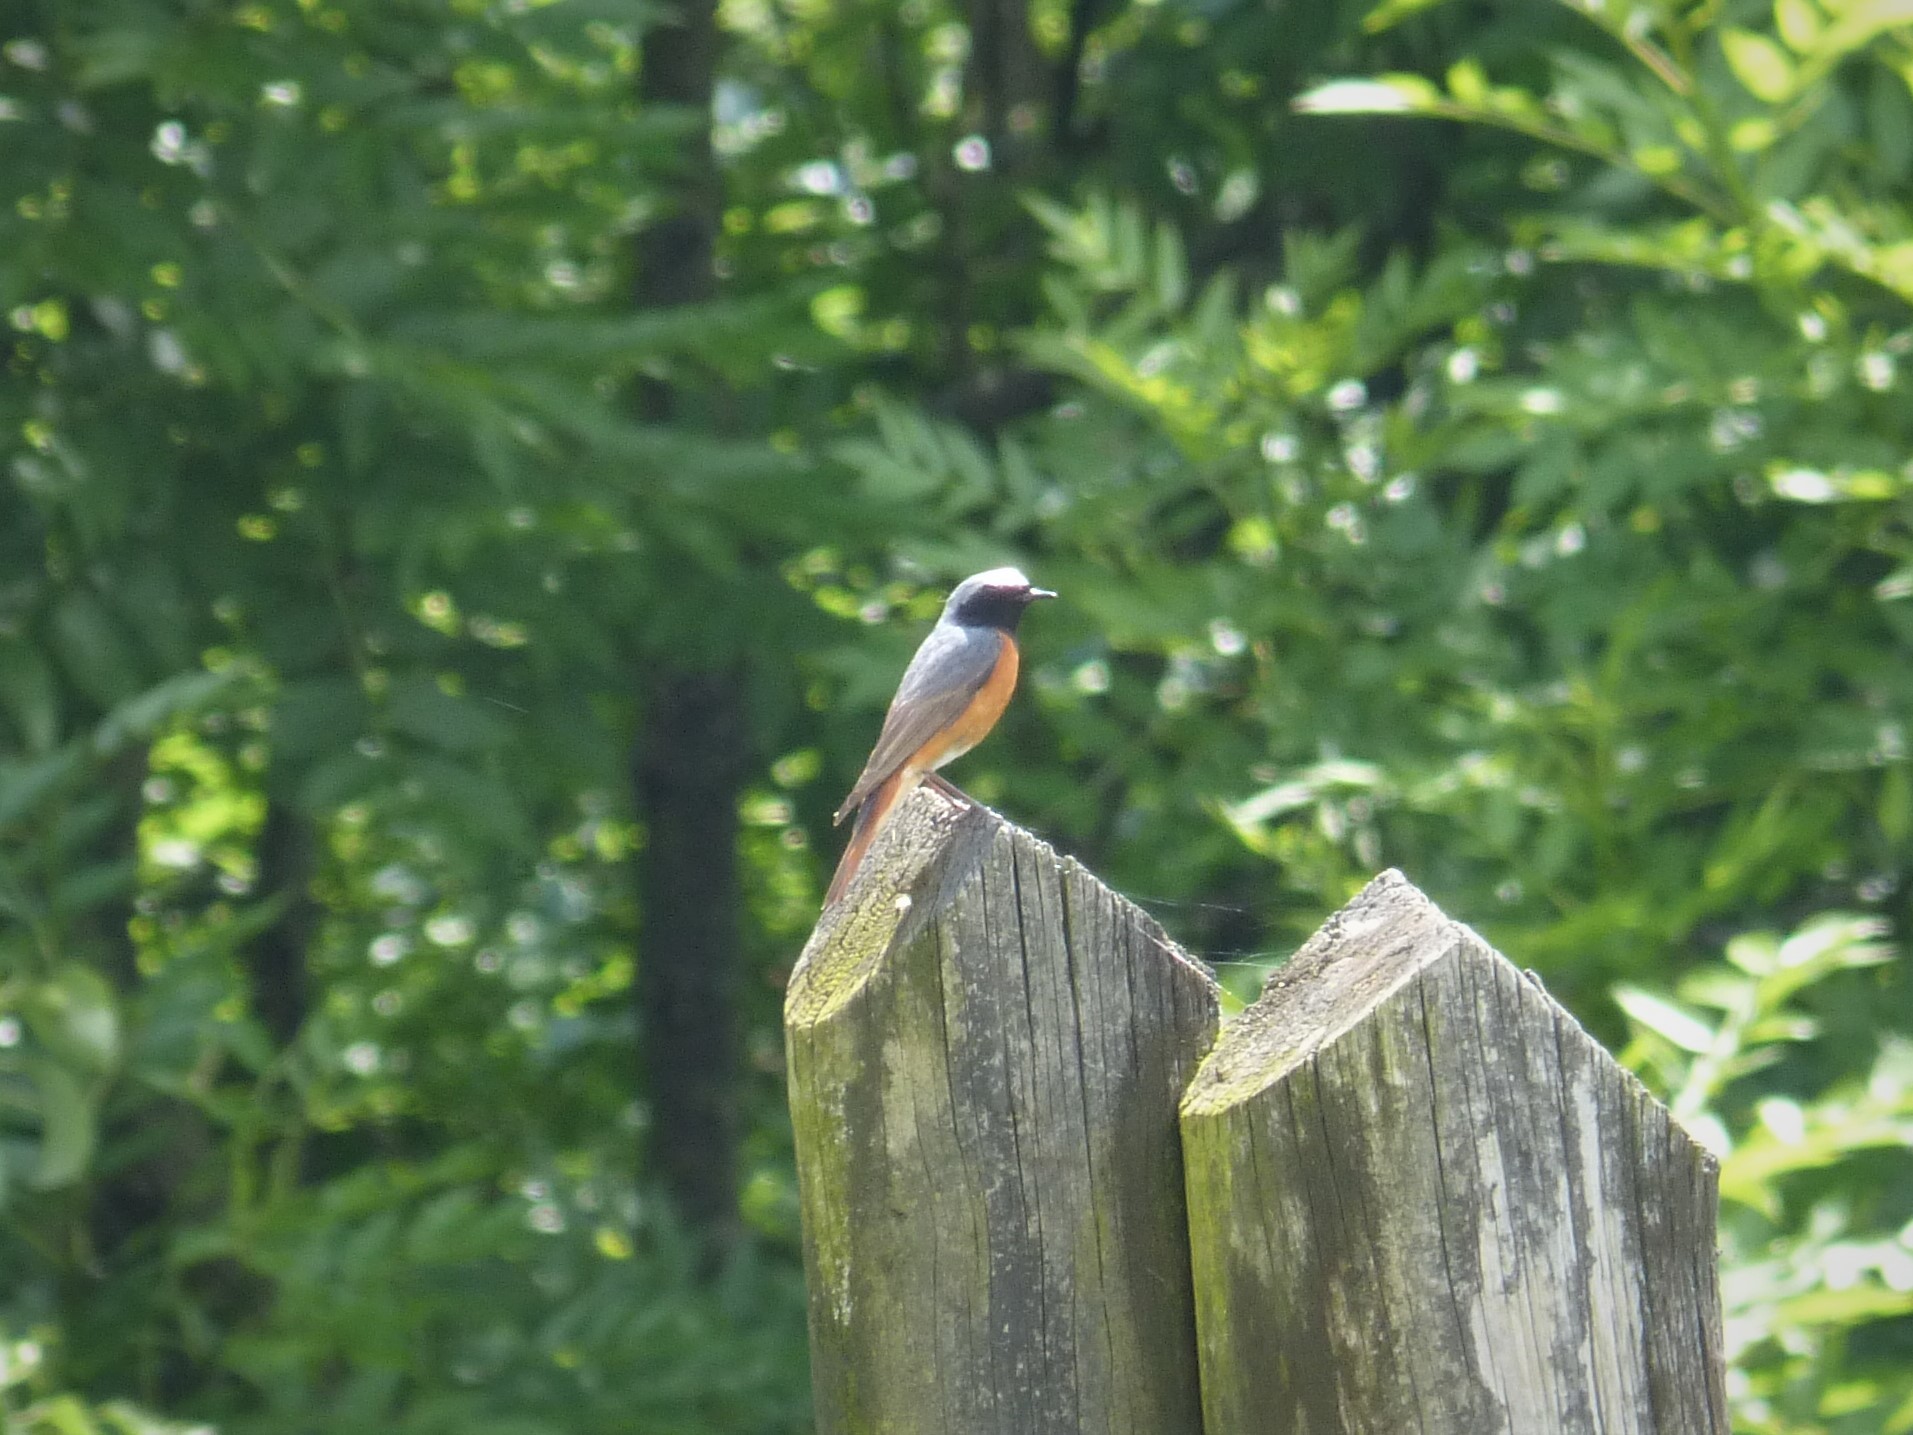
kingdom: Animalia
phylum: Chordata
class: Aves
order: Passeriformes
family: Muscicapidae
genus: Phoenicurus
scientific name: Phoenicurus phoenicurus
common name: Common redstart
